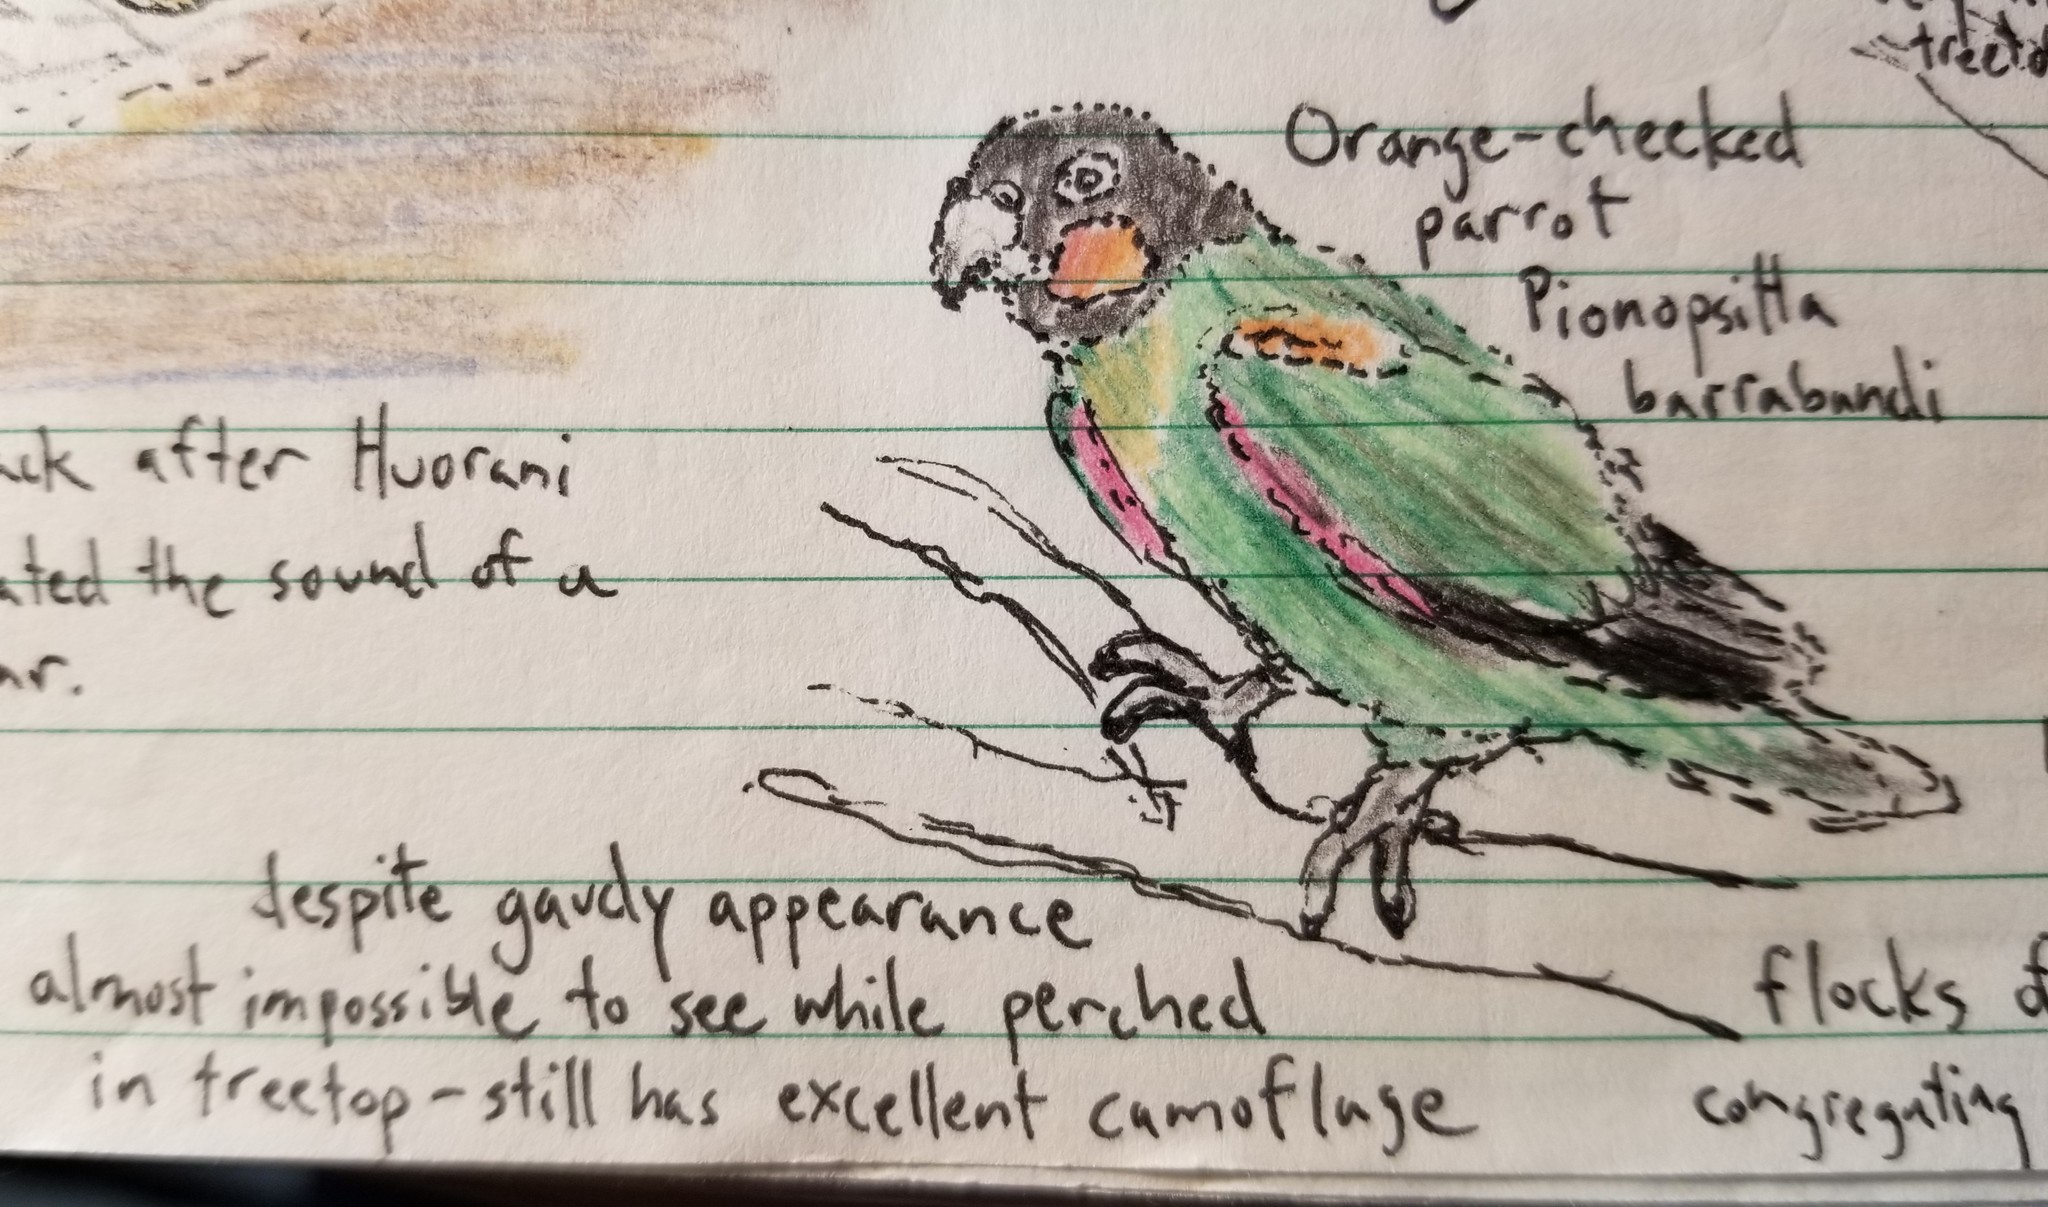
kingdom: Animalia
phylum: Chordata
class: Aves
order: Psittaciformes
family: Psittacidae
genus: Pionopsitta
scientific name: Pionopsitta barrabandi
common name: Orange-cheeked parrot
